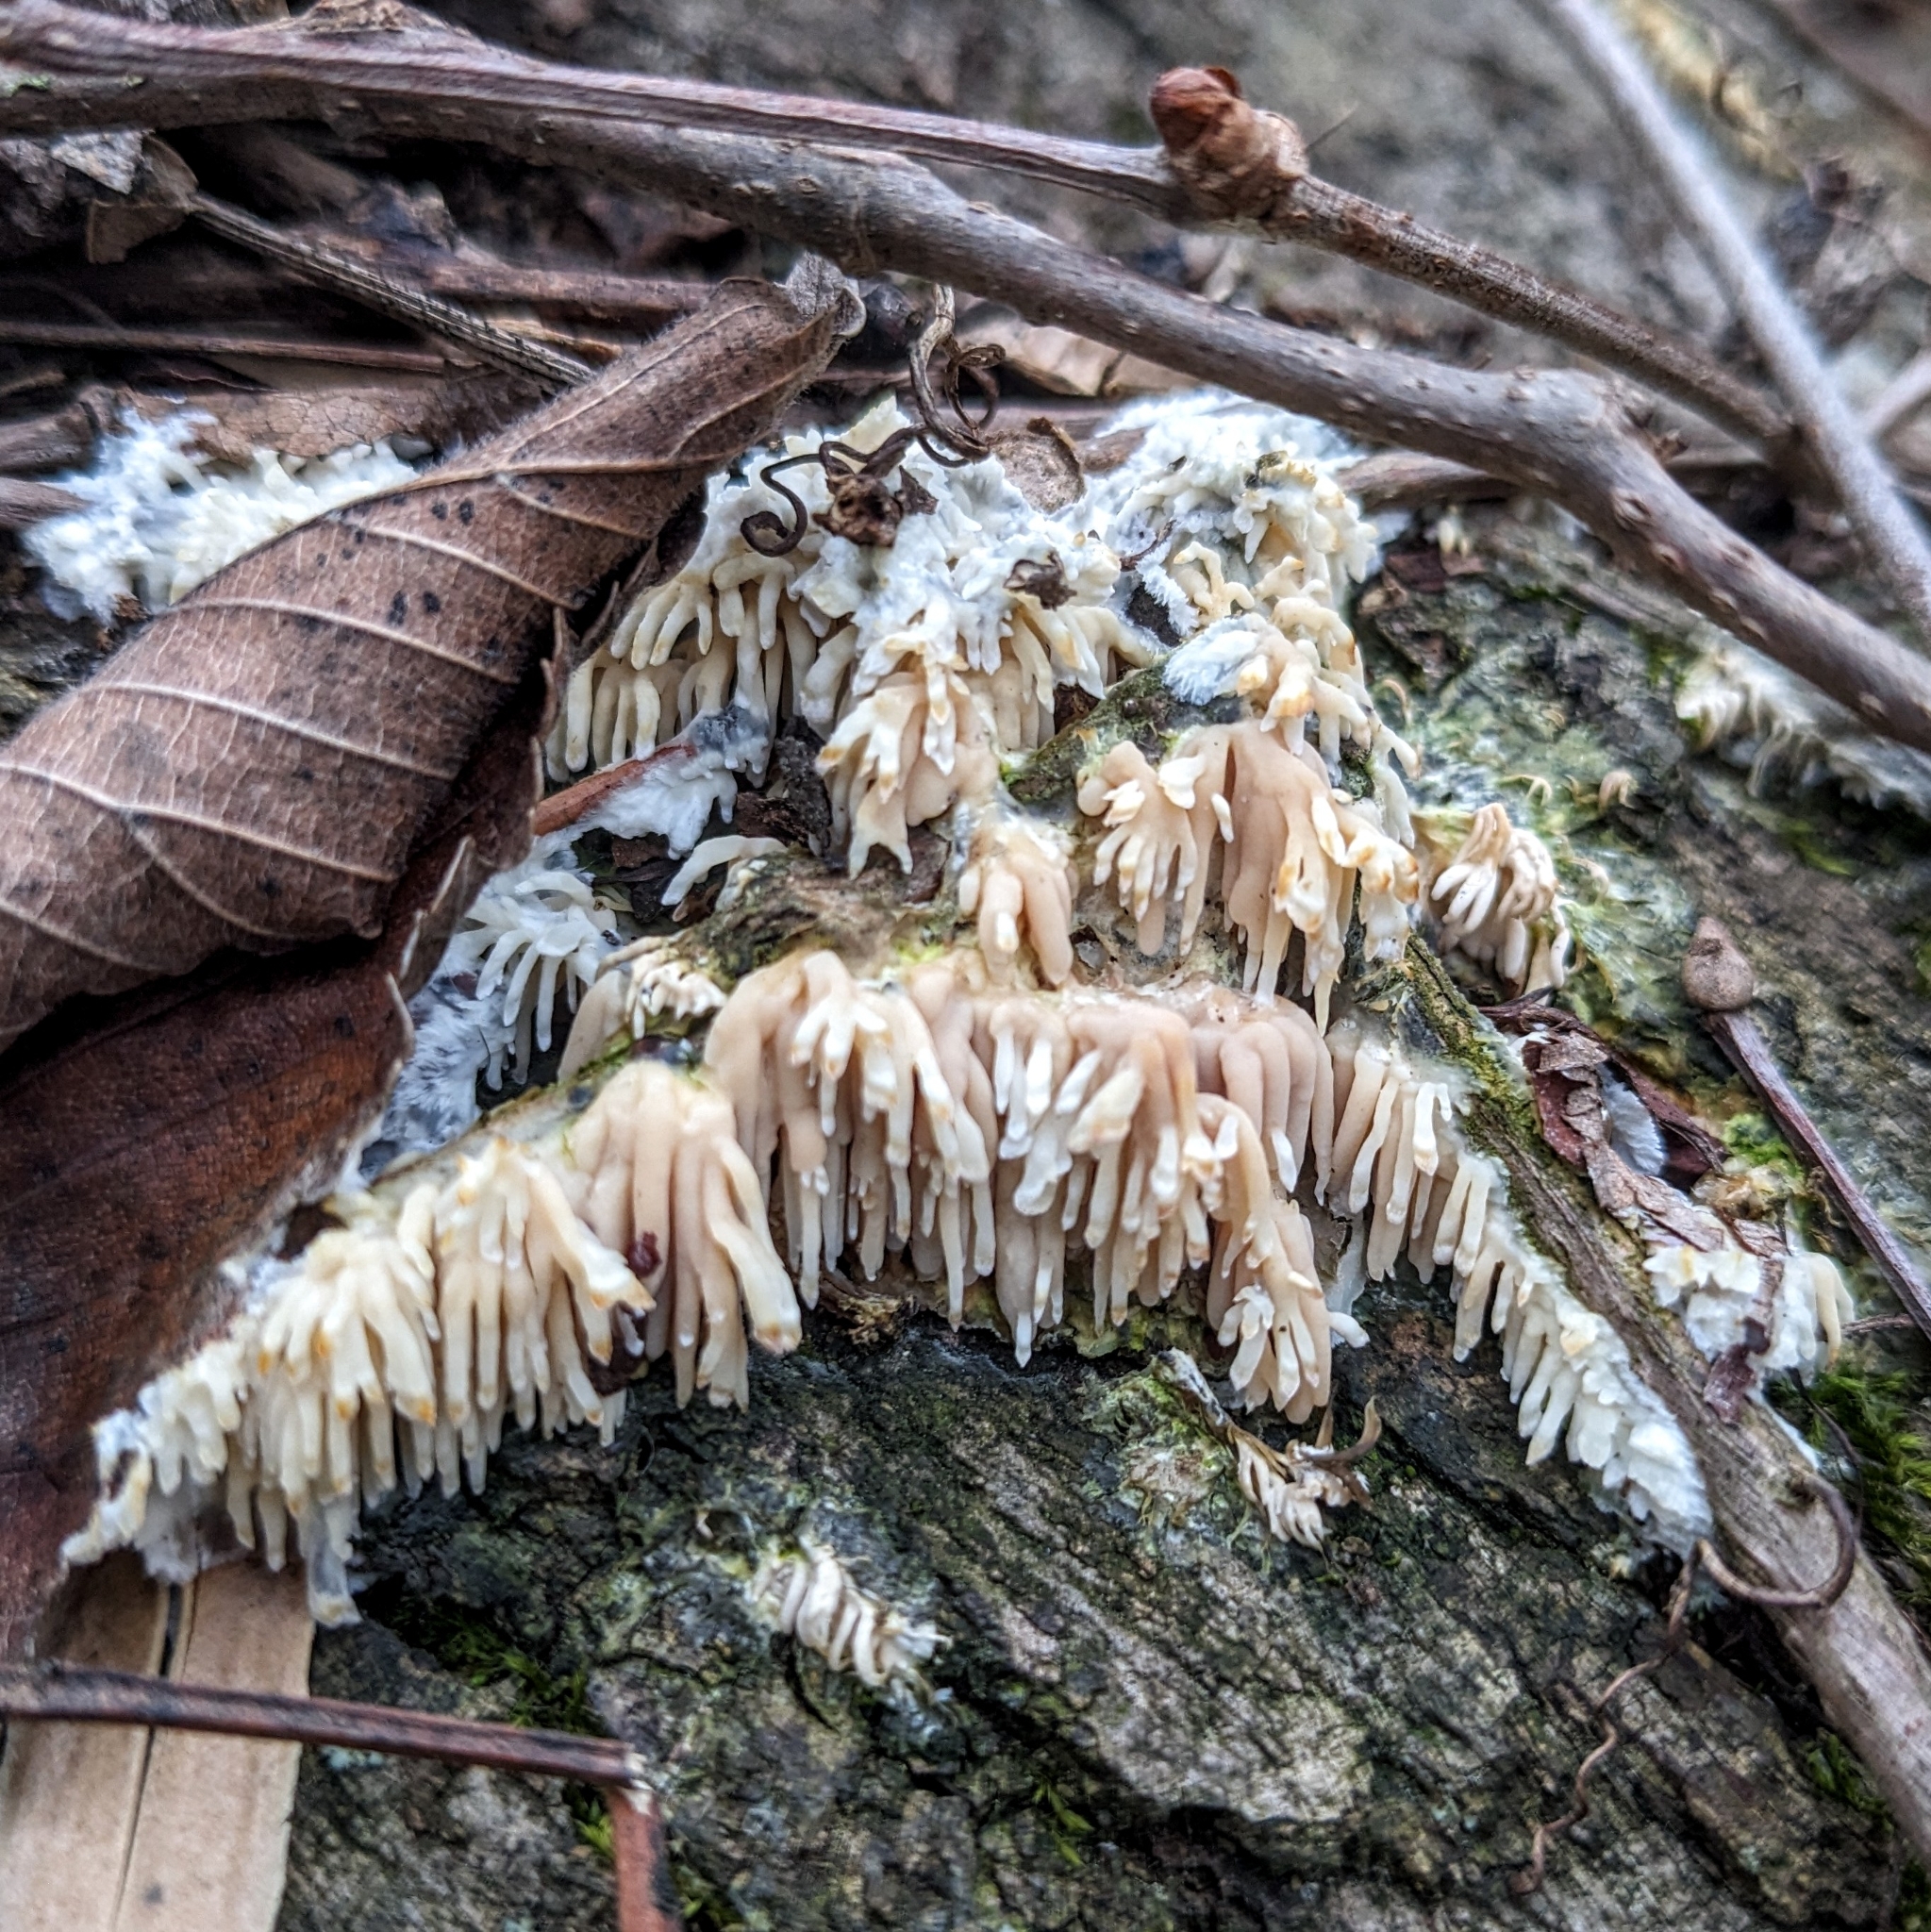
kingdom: Fungi
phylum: Basidiomycota
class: Agaricomycetes
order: Agaricales
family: Radulomycetaceae
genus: Radulomyces
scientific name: Radulomyces copelandii
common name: Asian beauty
